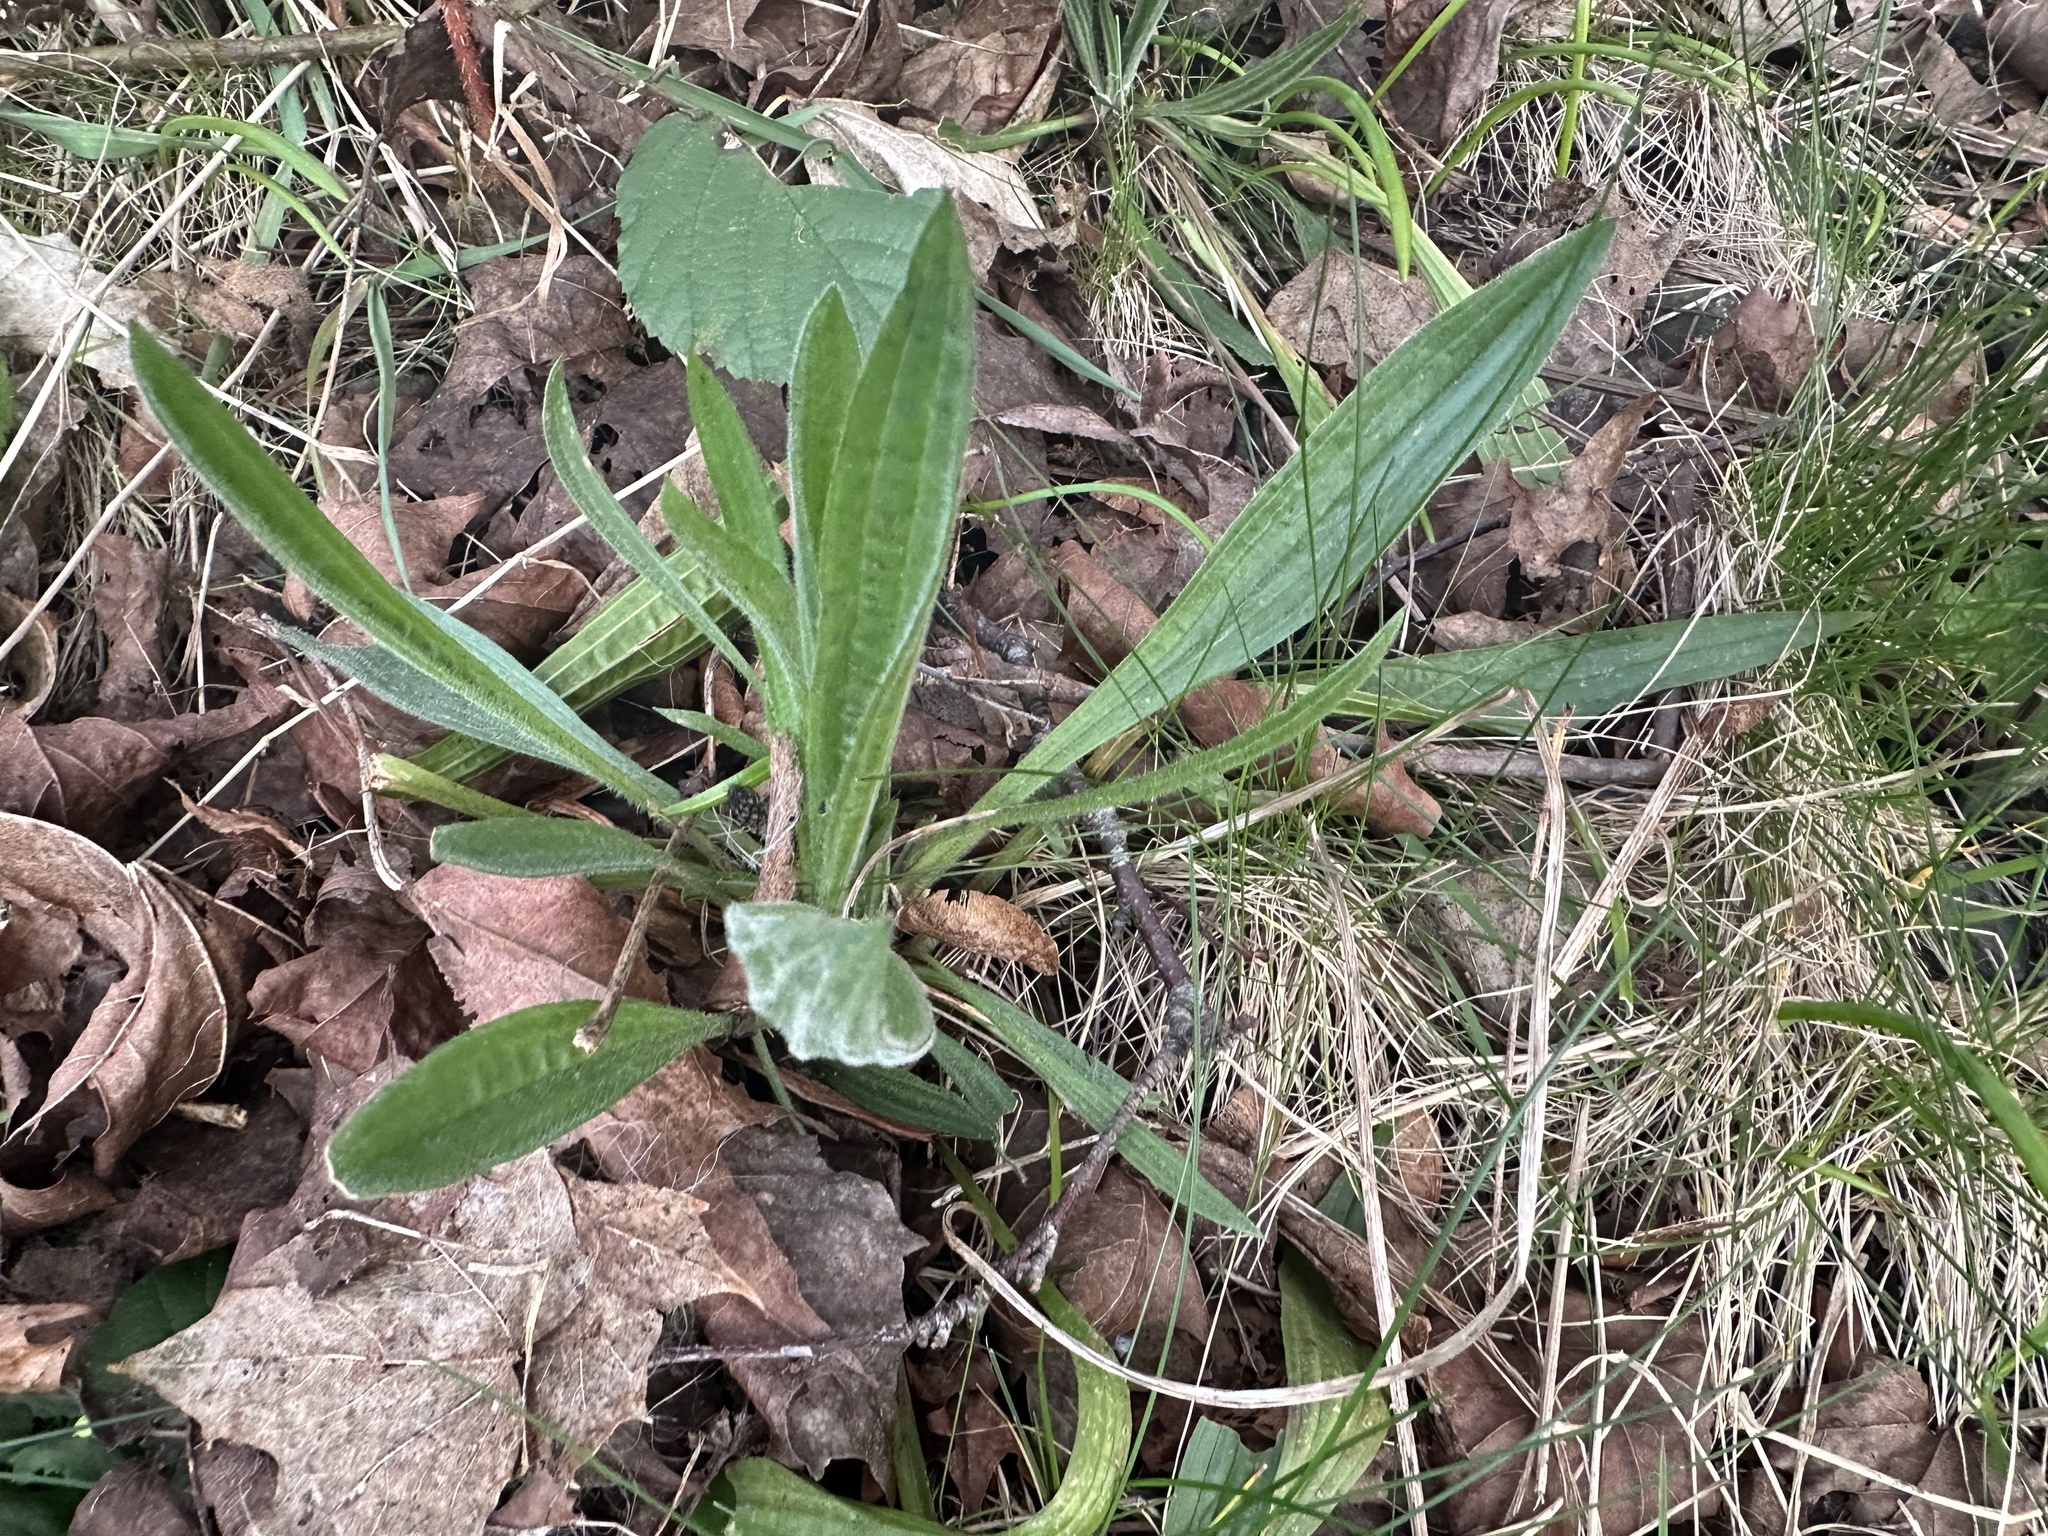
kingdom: Plantae
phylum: Tracheophyta
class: Magnoliopsida
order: Lamiales
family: Plantaginaceae
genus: Plantago
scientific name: Plantago lanceolata
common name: Ribwort plantain
